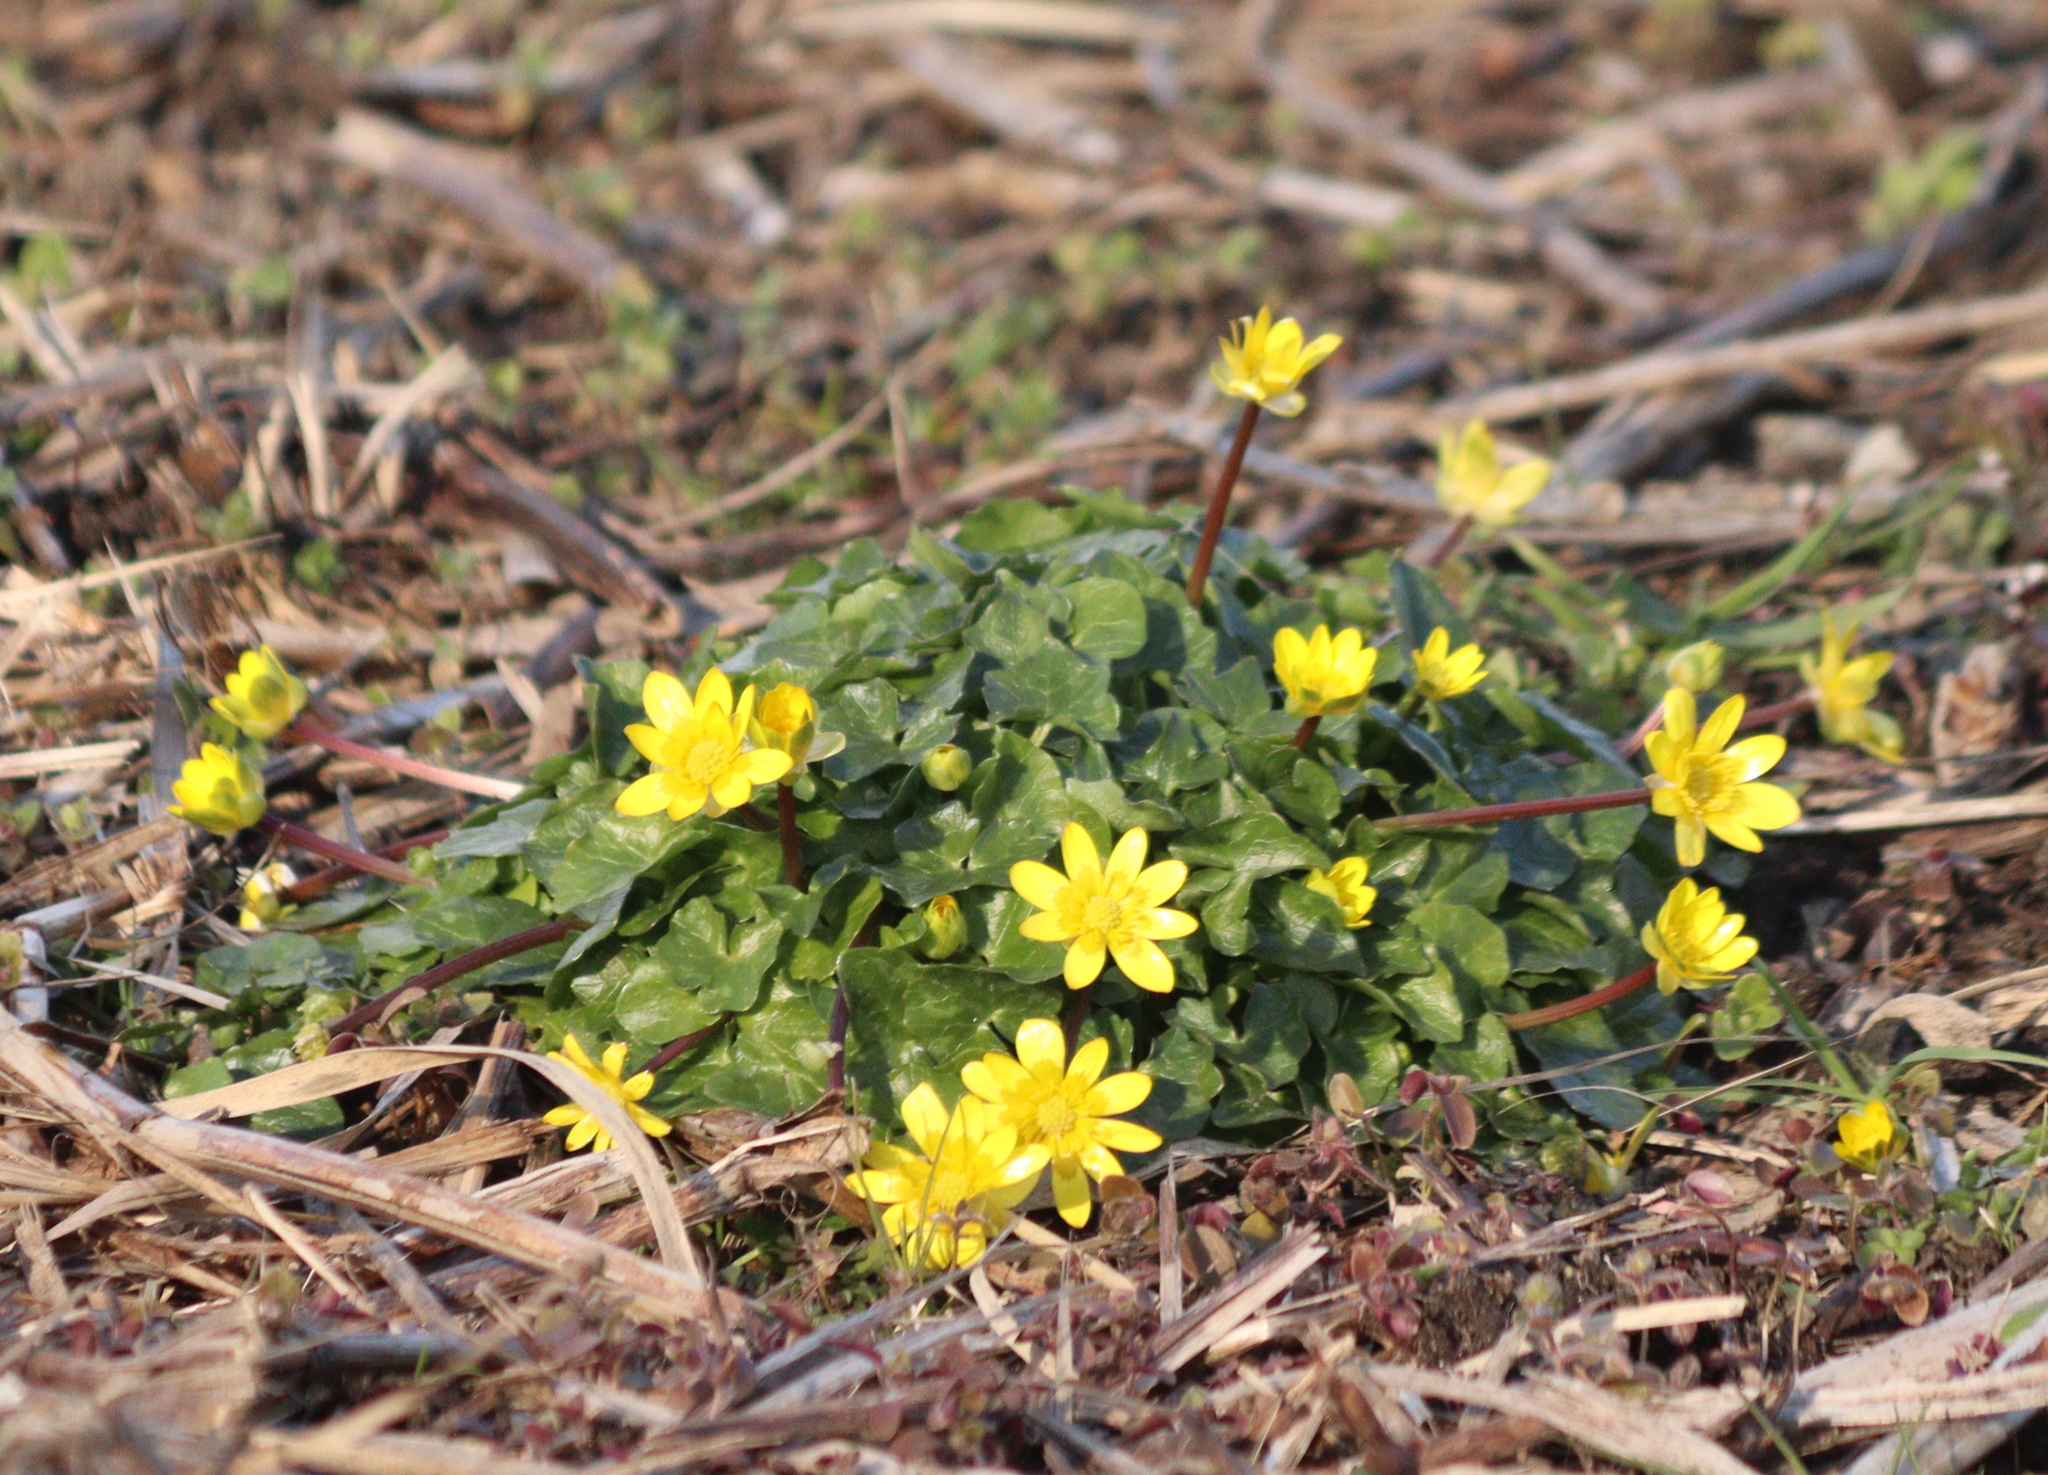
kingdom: Plantae
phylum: Tracheophyta
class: Magnoliopsida
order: Ranunculales
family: Ranunculaceae
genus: Ficaria
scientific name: Ficaria verna
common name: Lesser celandine
